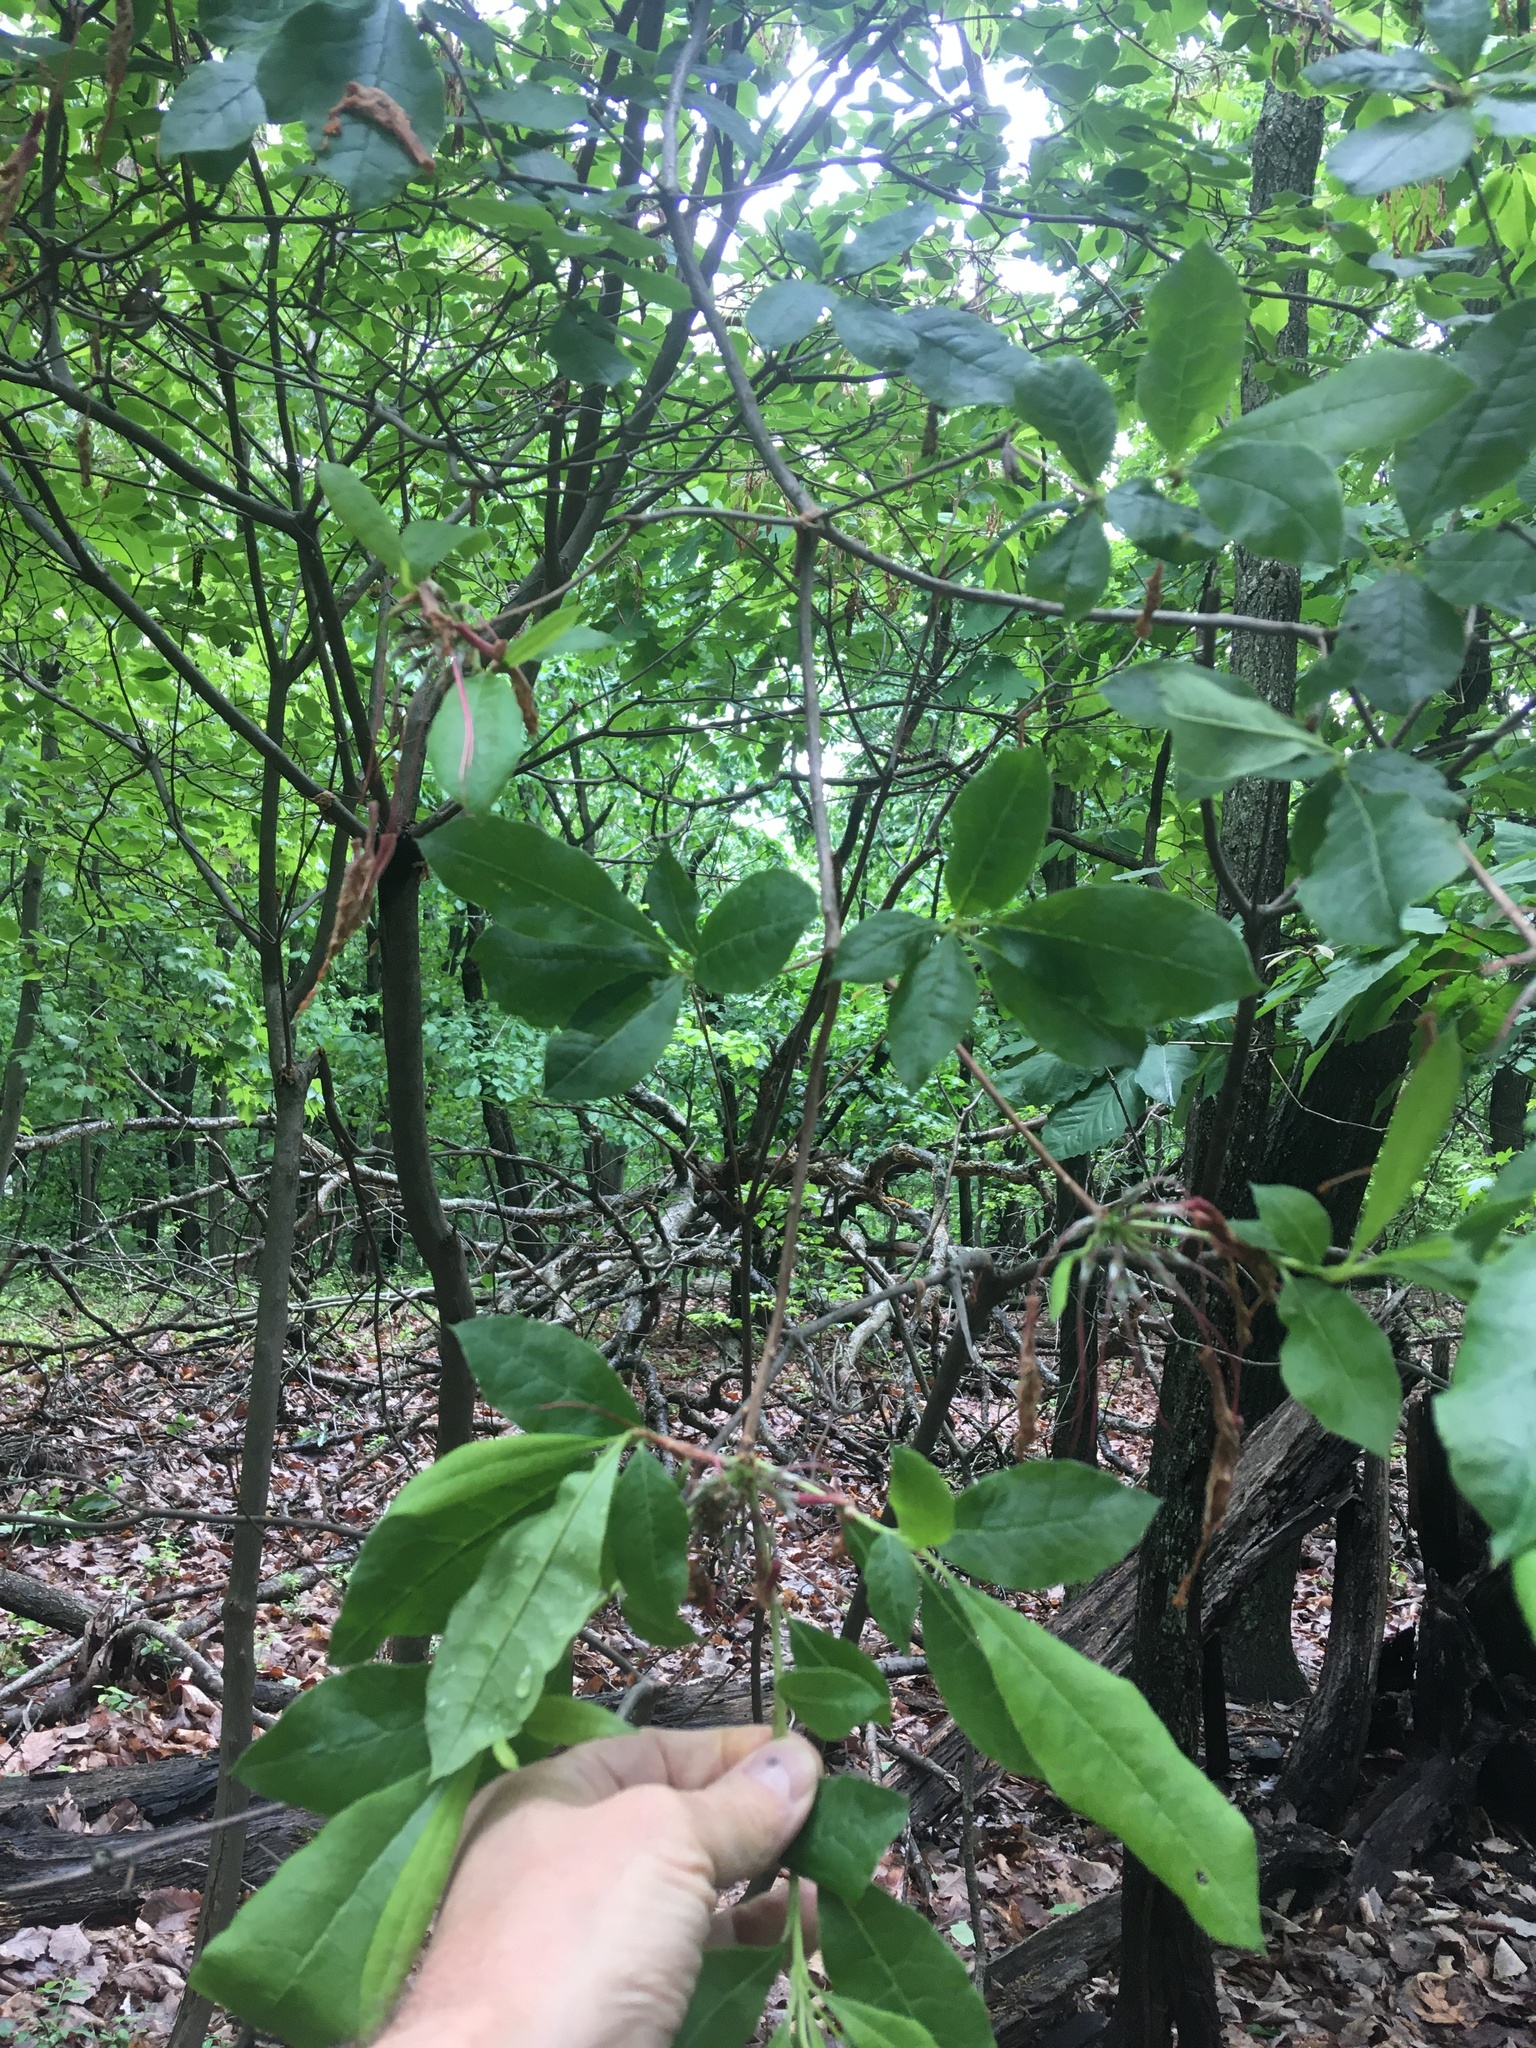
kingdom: Plantae
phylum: Tracheophyta
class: Magnoliopsida
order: Ericales
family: Ericaceae
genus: Rhododendron
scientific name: Rhododendron periclymenoides
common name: Election-pink
